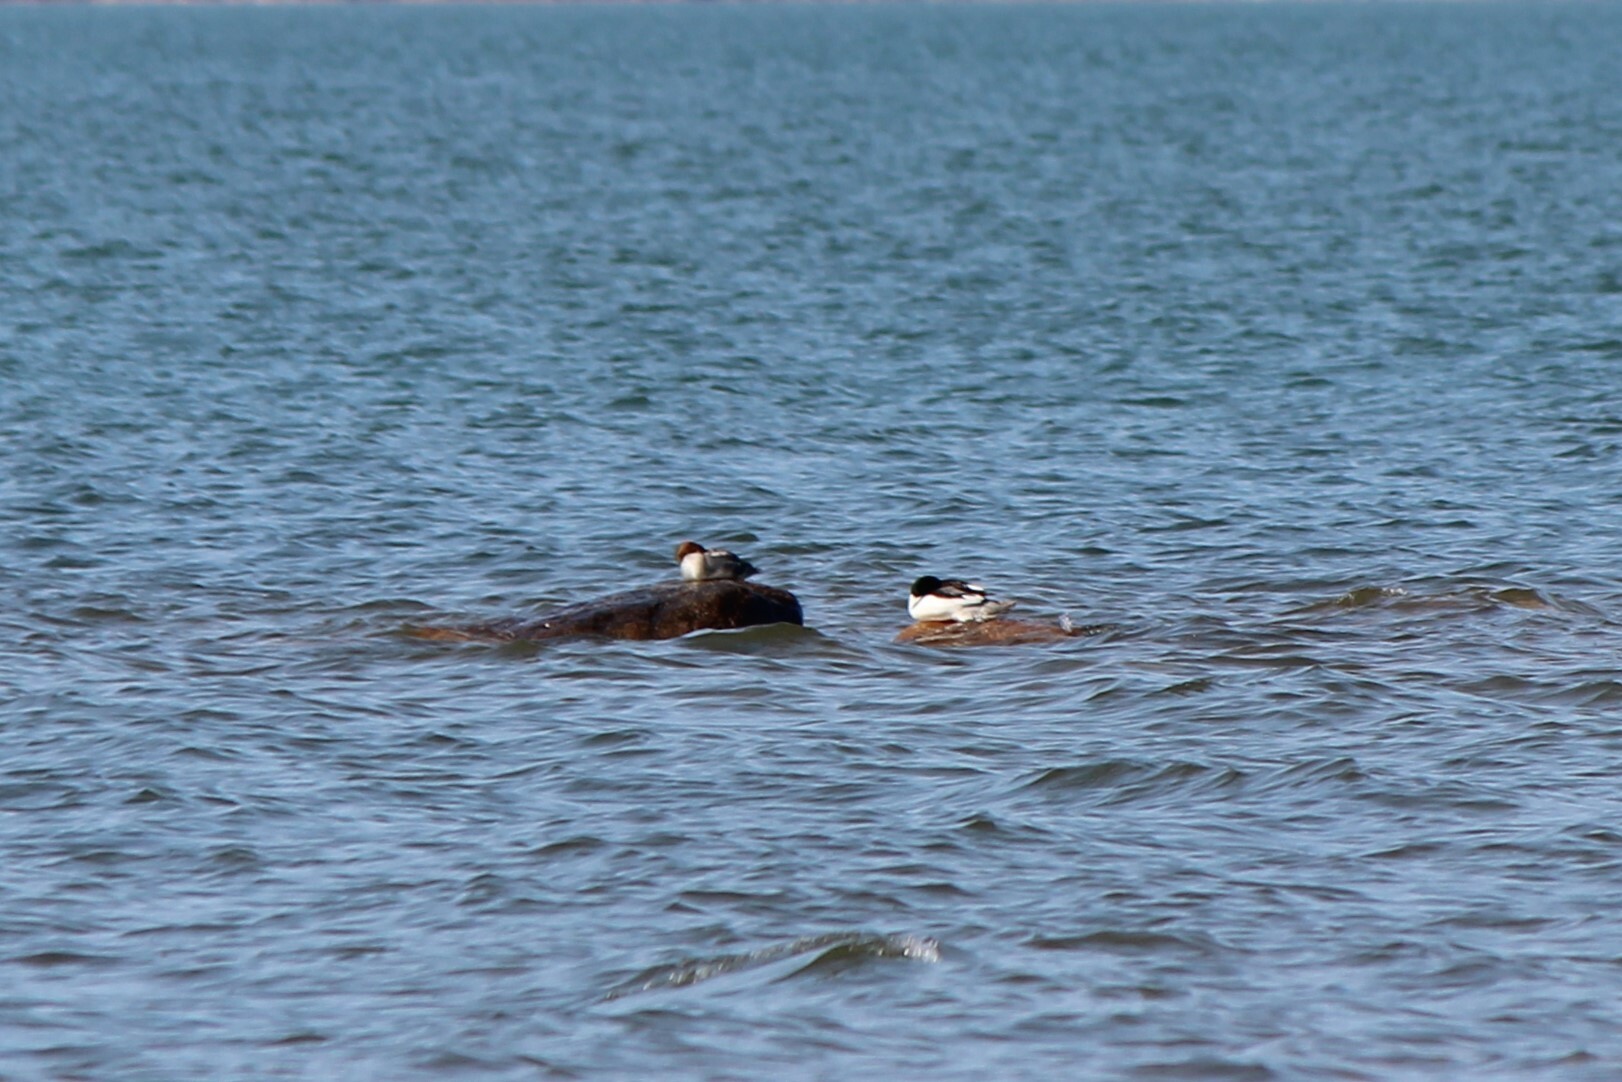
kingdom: Animalia
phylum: Chordata
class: Aves
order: Anseriformes
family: Anatidae
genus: Mergus
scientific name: Mergus merganser
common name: Common merganser
